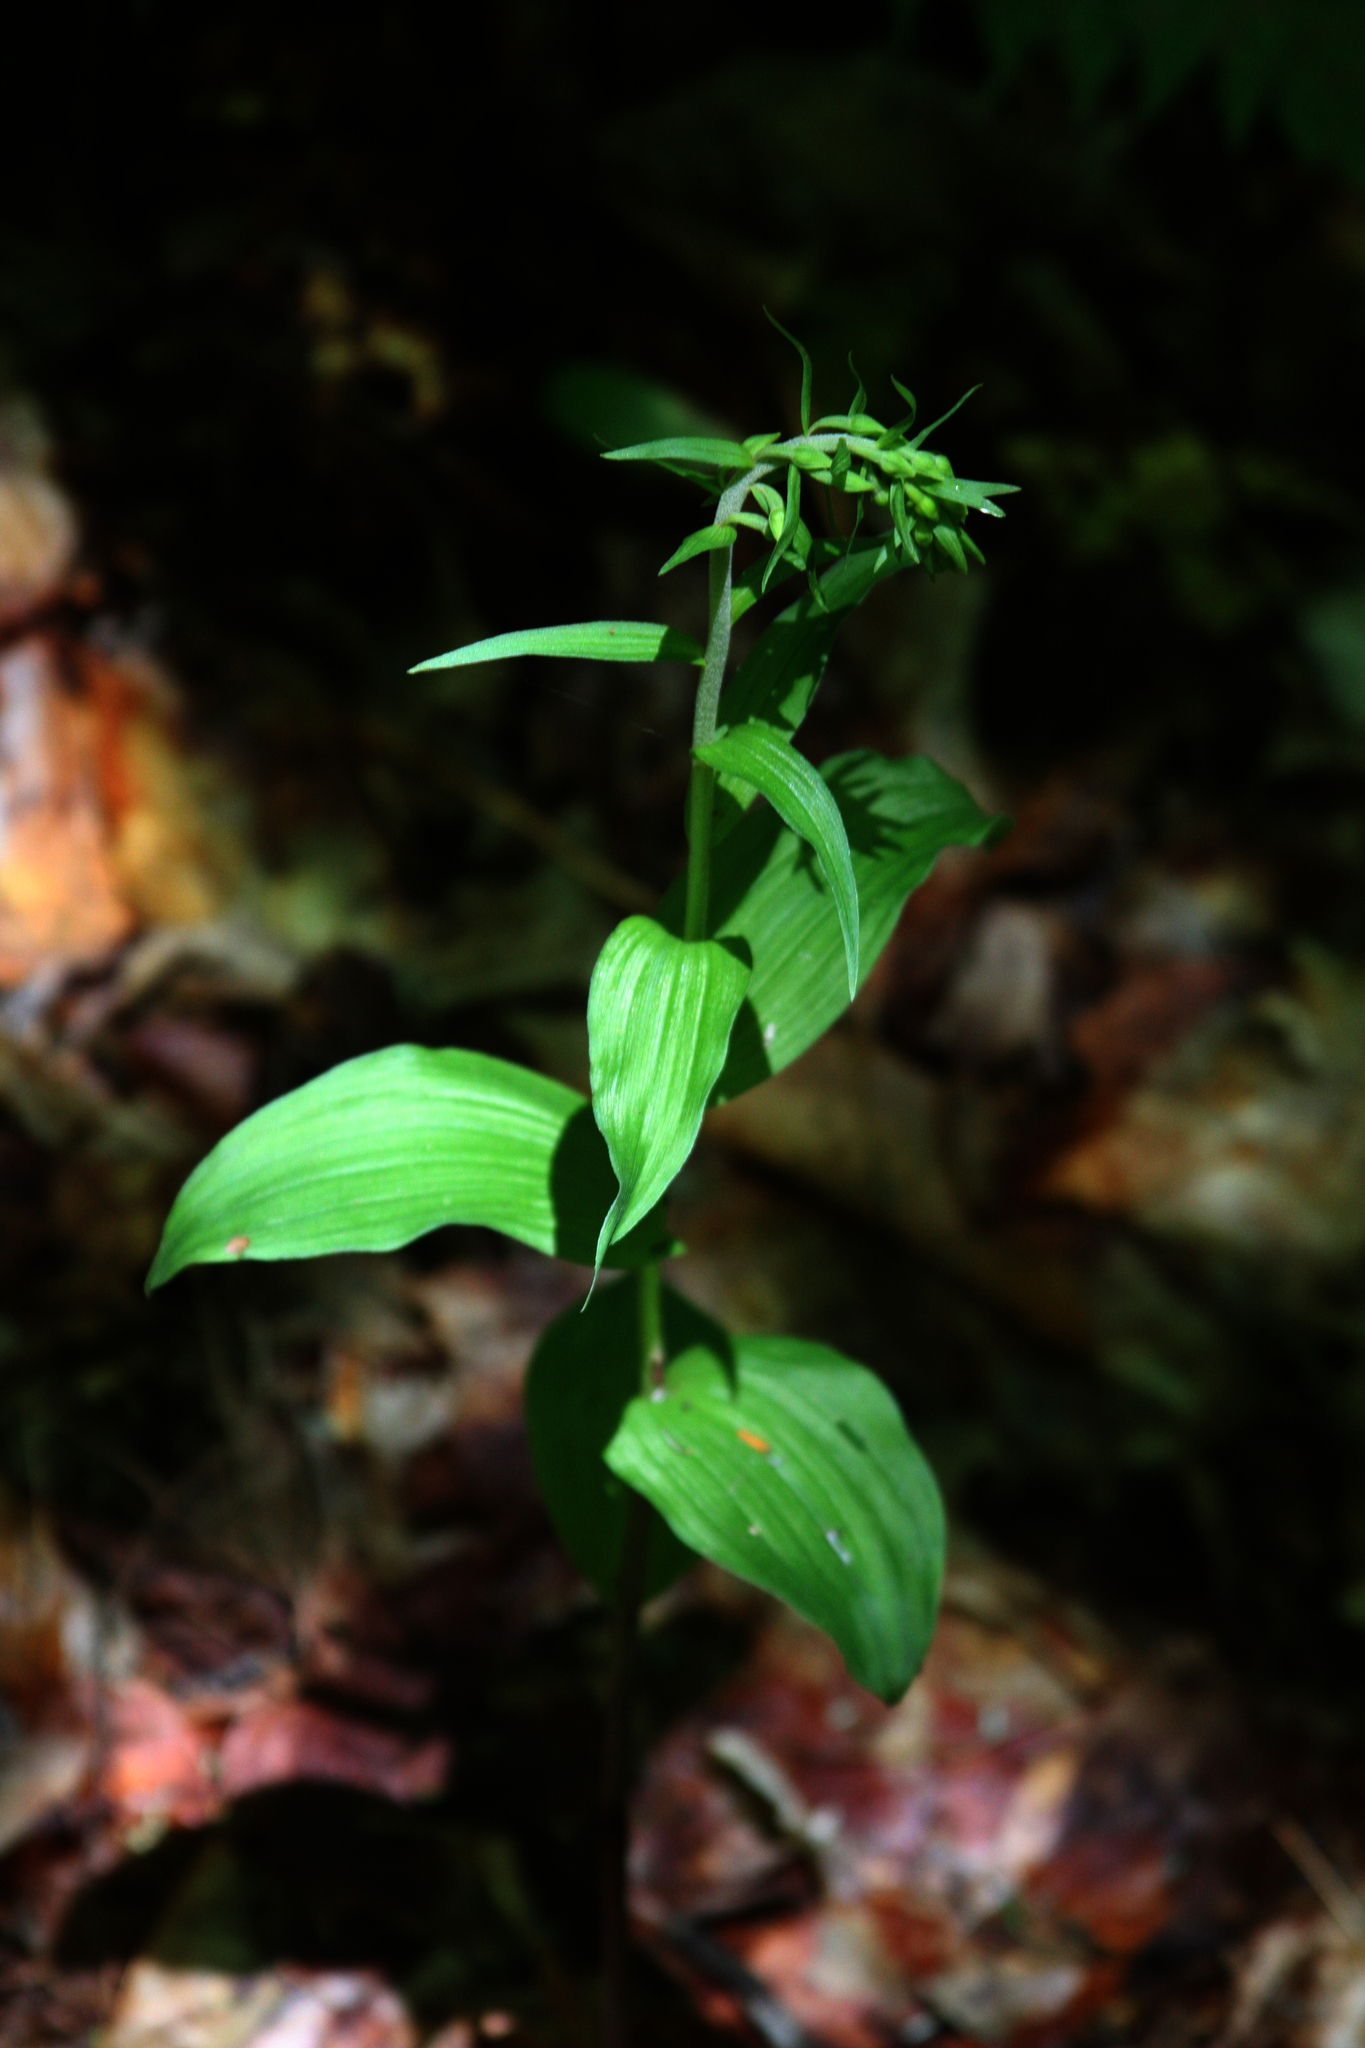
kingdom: Plantae
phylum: Tracheophyta
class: Liliopsida
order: Asparagales
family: Orchidaceae
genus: Epipactis
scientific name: Epipactis helleborine
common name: Broad-leaved helleborine
